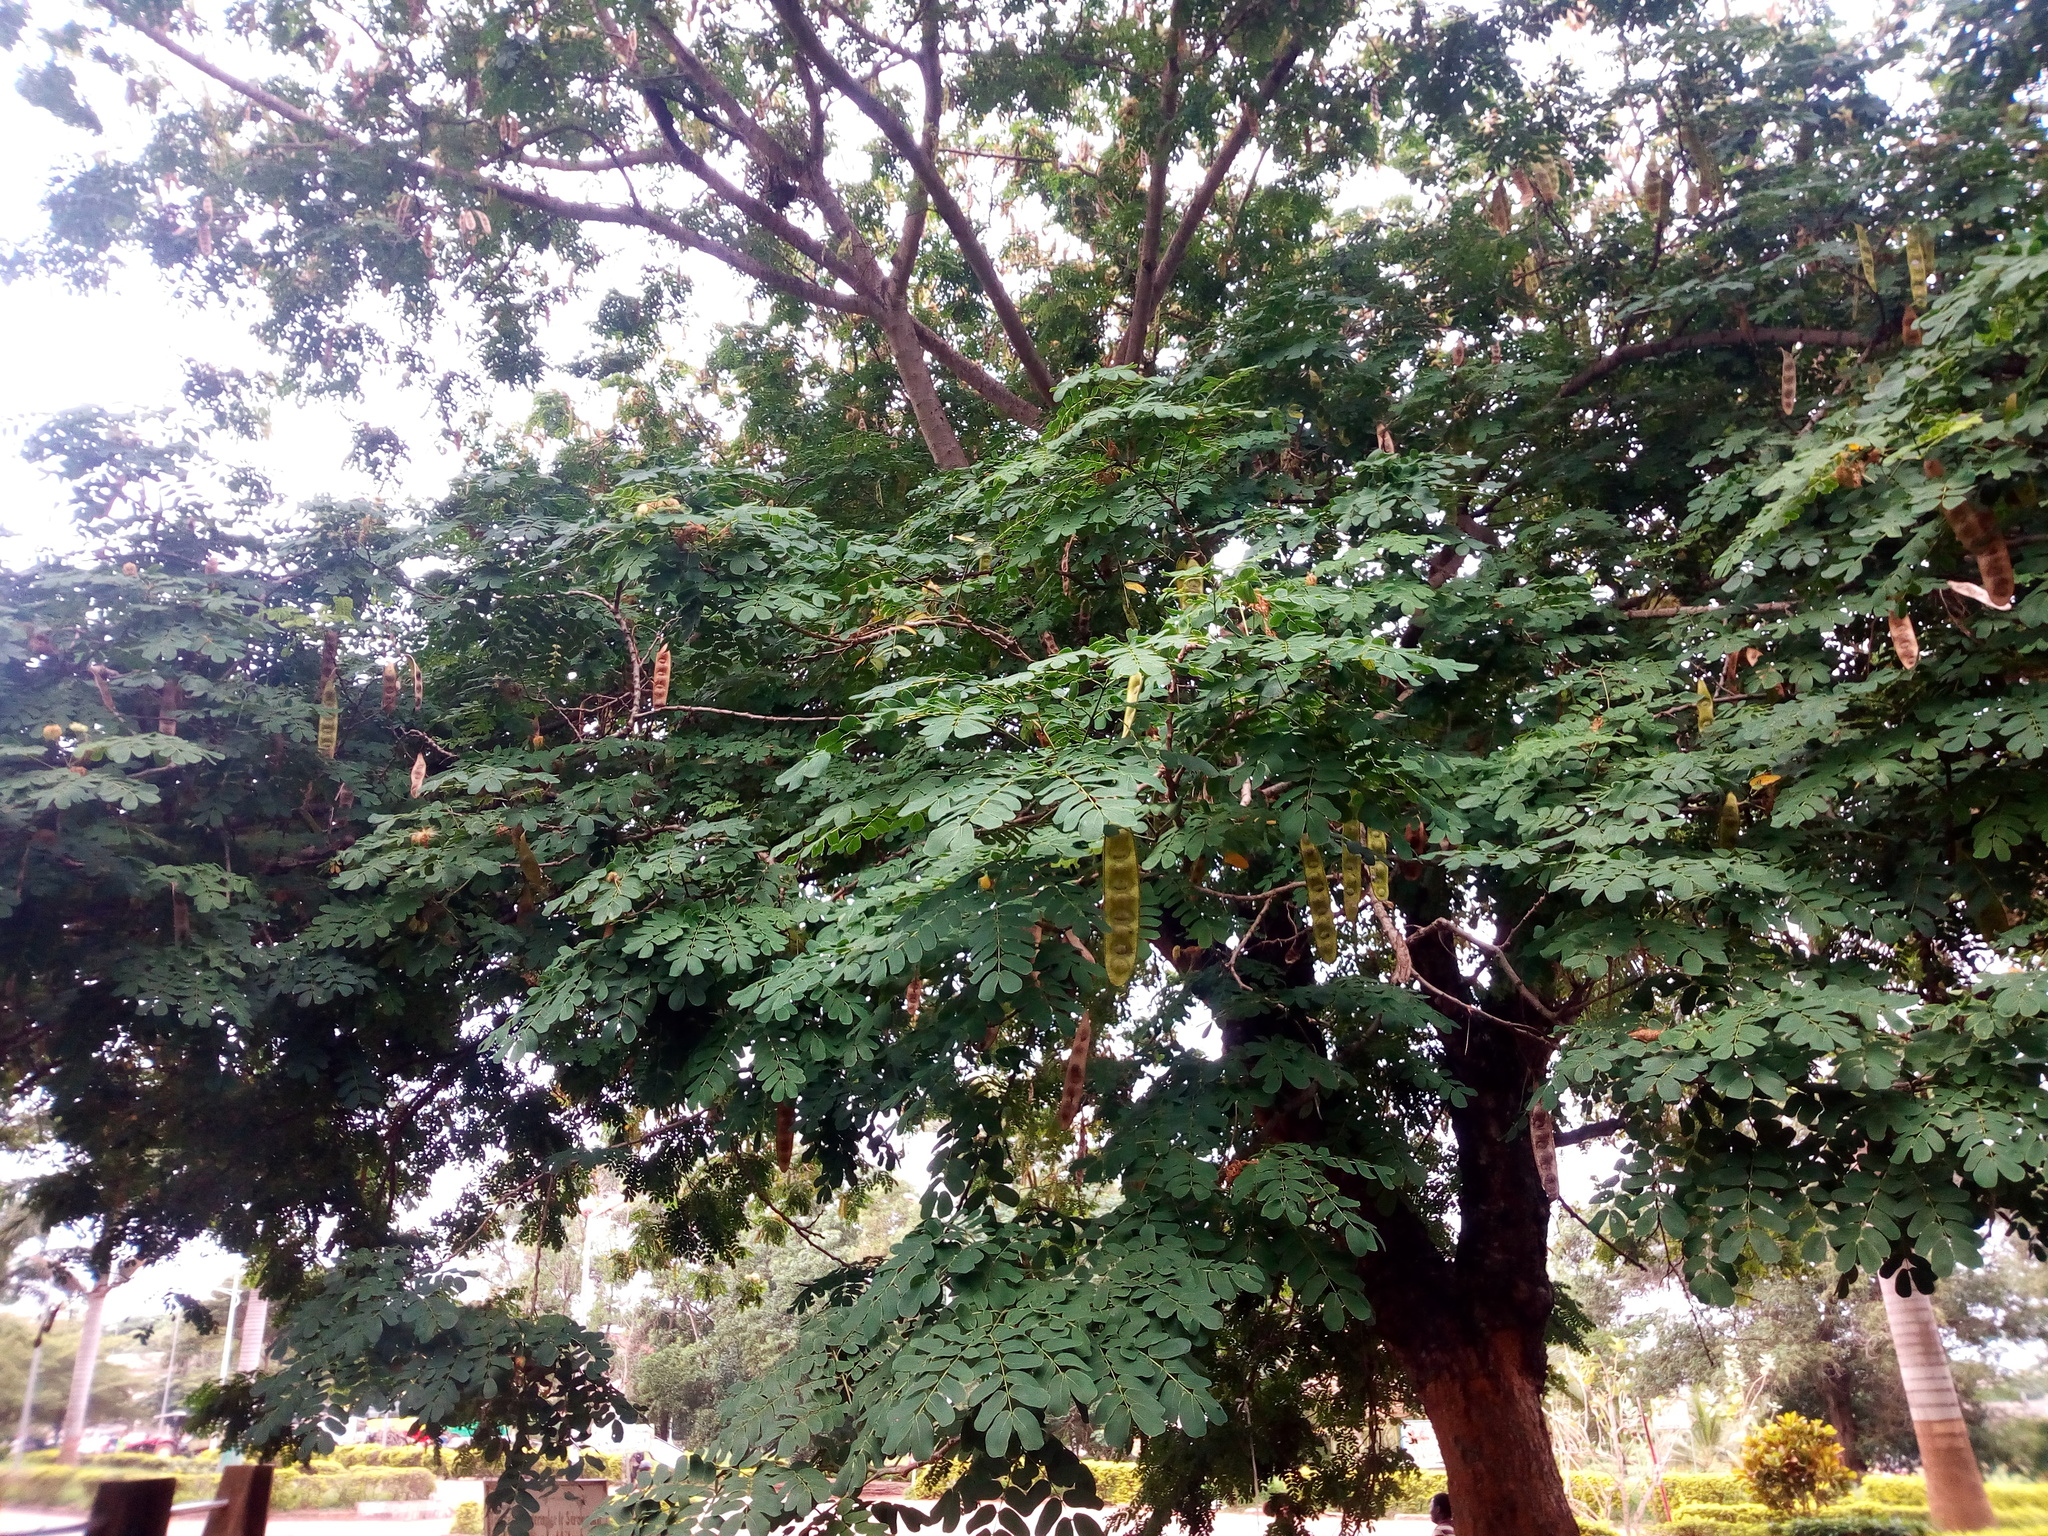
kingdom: Plantae
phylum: Tracheophyta
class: Magnoliopsida
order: Fabales
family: Fabaceae
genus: Albizia
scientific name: Albizia lebbeck
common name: Woman's tongue
